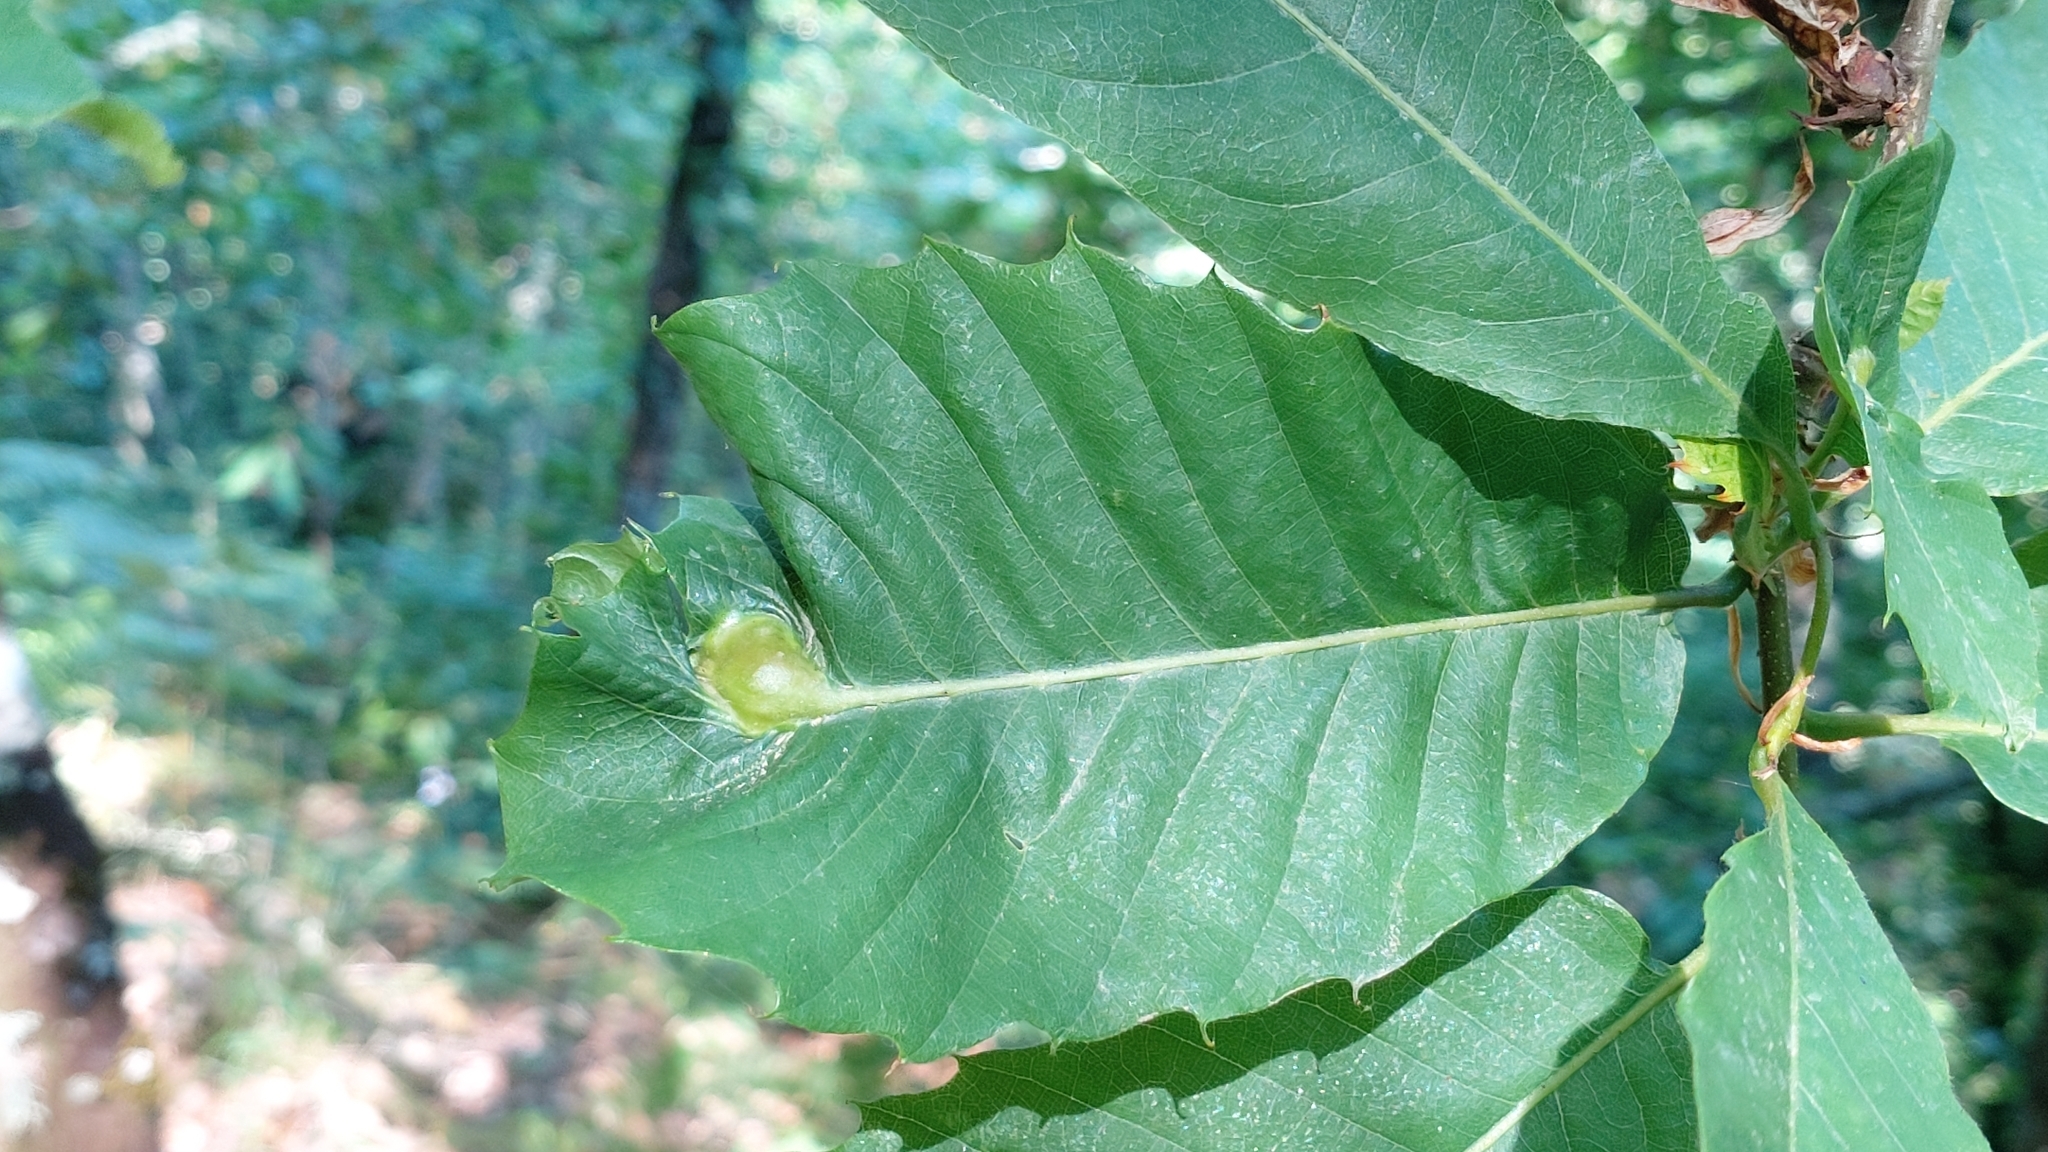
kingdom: Animalia
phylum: Arthropoda
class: Insecta
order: Hymenoptera
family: Cynipidae
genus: Dryocosmus
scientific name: Dryocosmus kuriphilus
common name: Asian chestnut gall wasp
